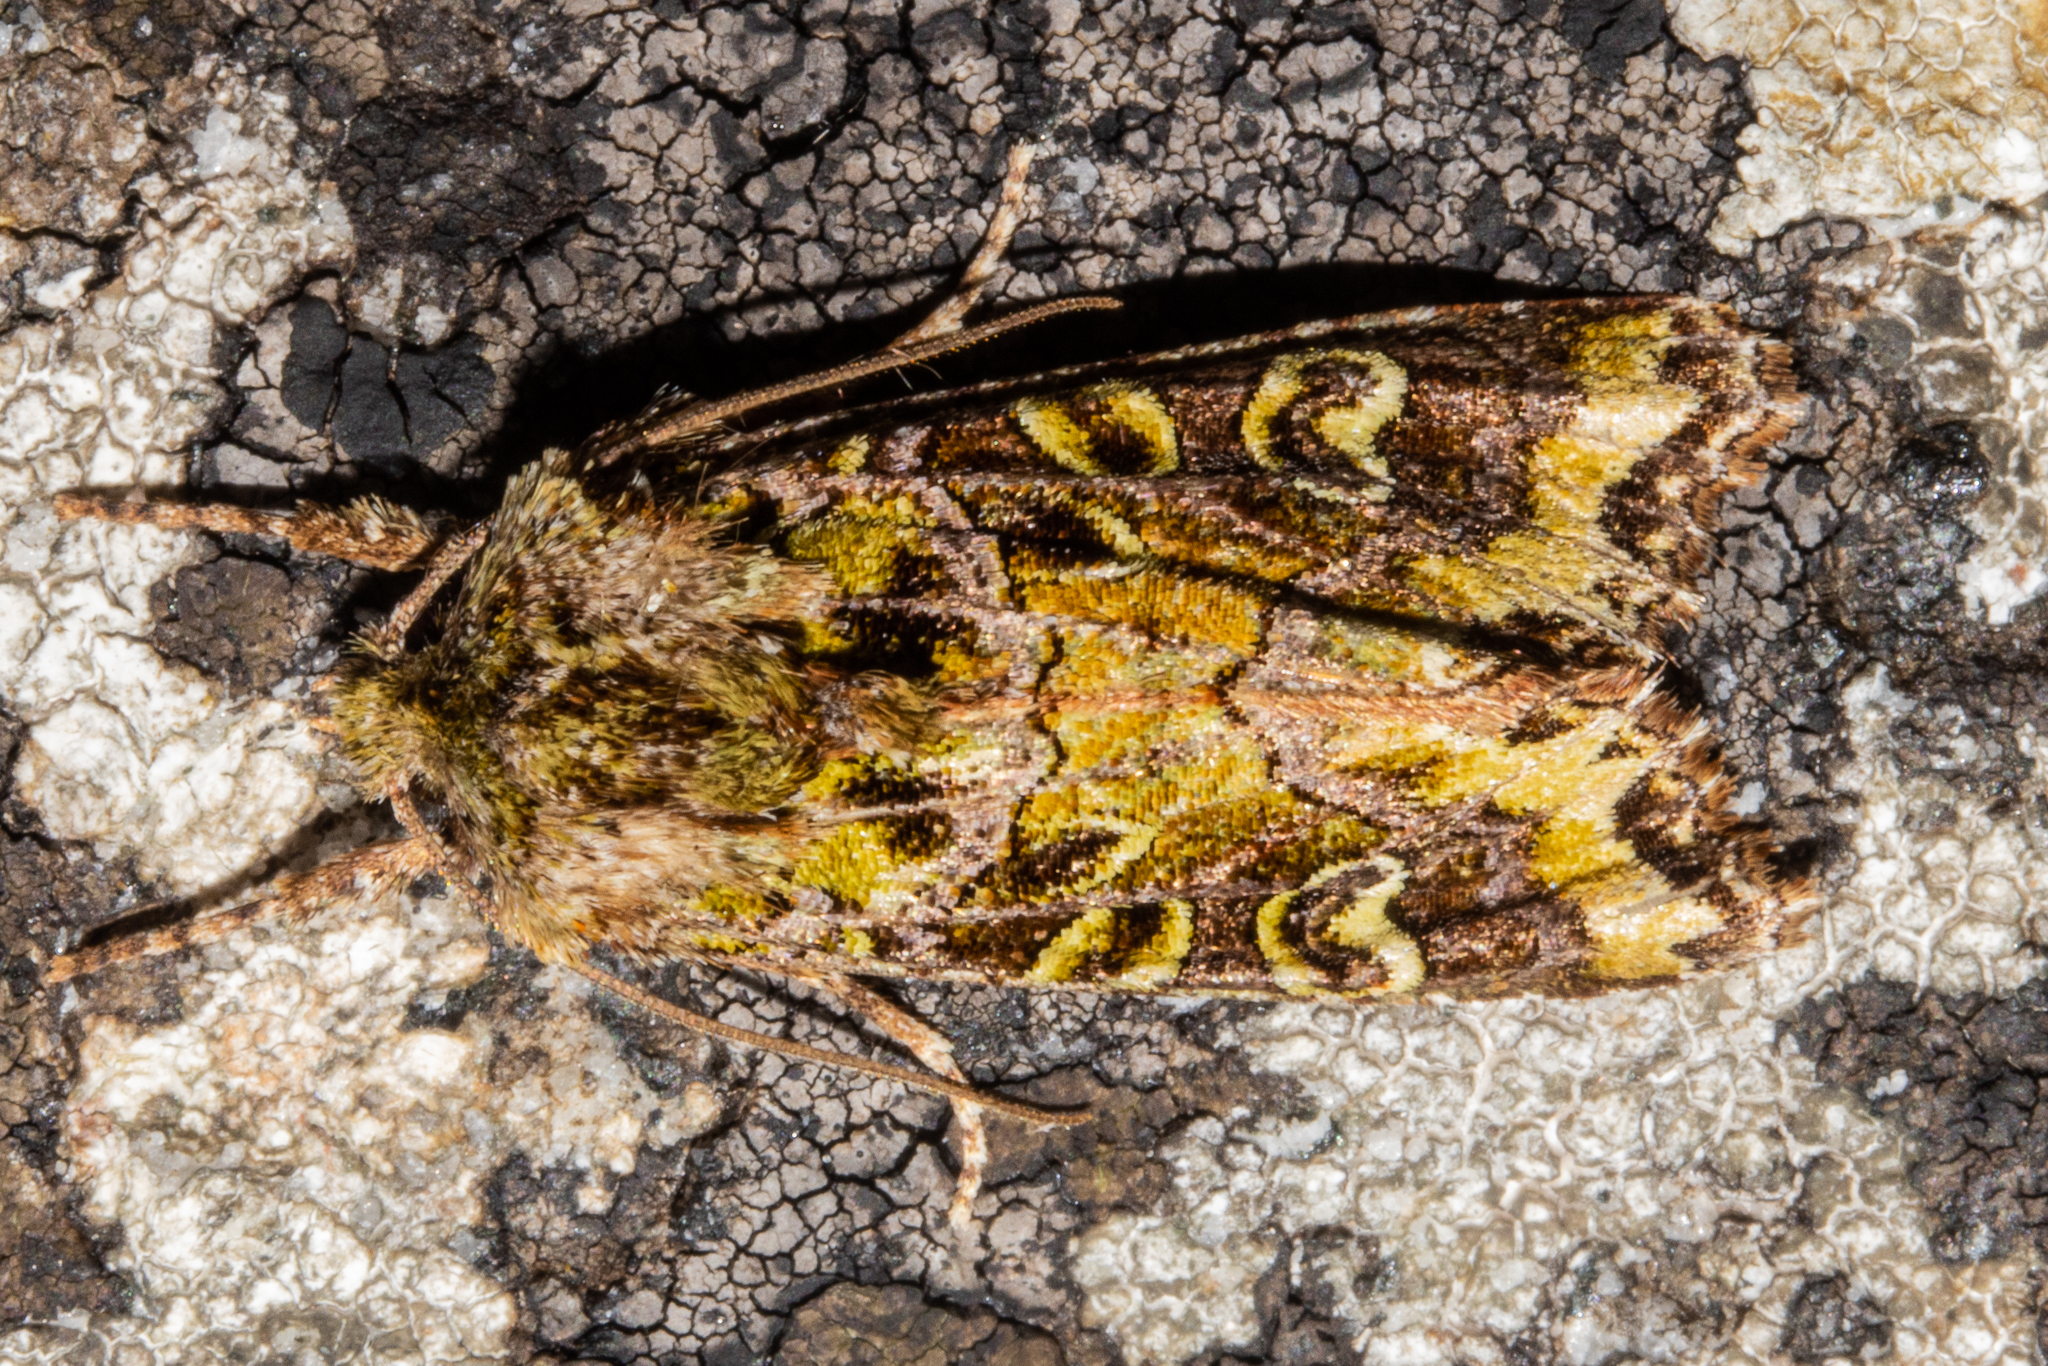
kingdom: Animalia
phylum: Arthropoda
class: Insecta
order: Lepidoptera
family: Noctuidae
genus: Ichneutica
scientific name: Ichneutica chlorodonta
